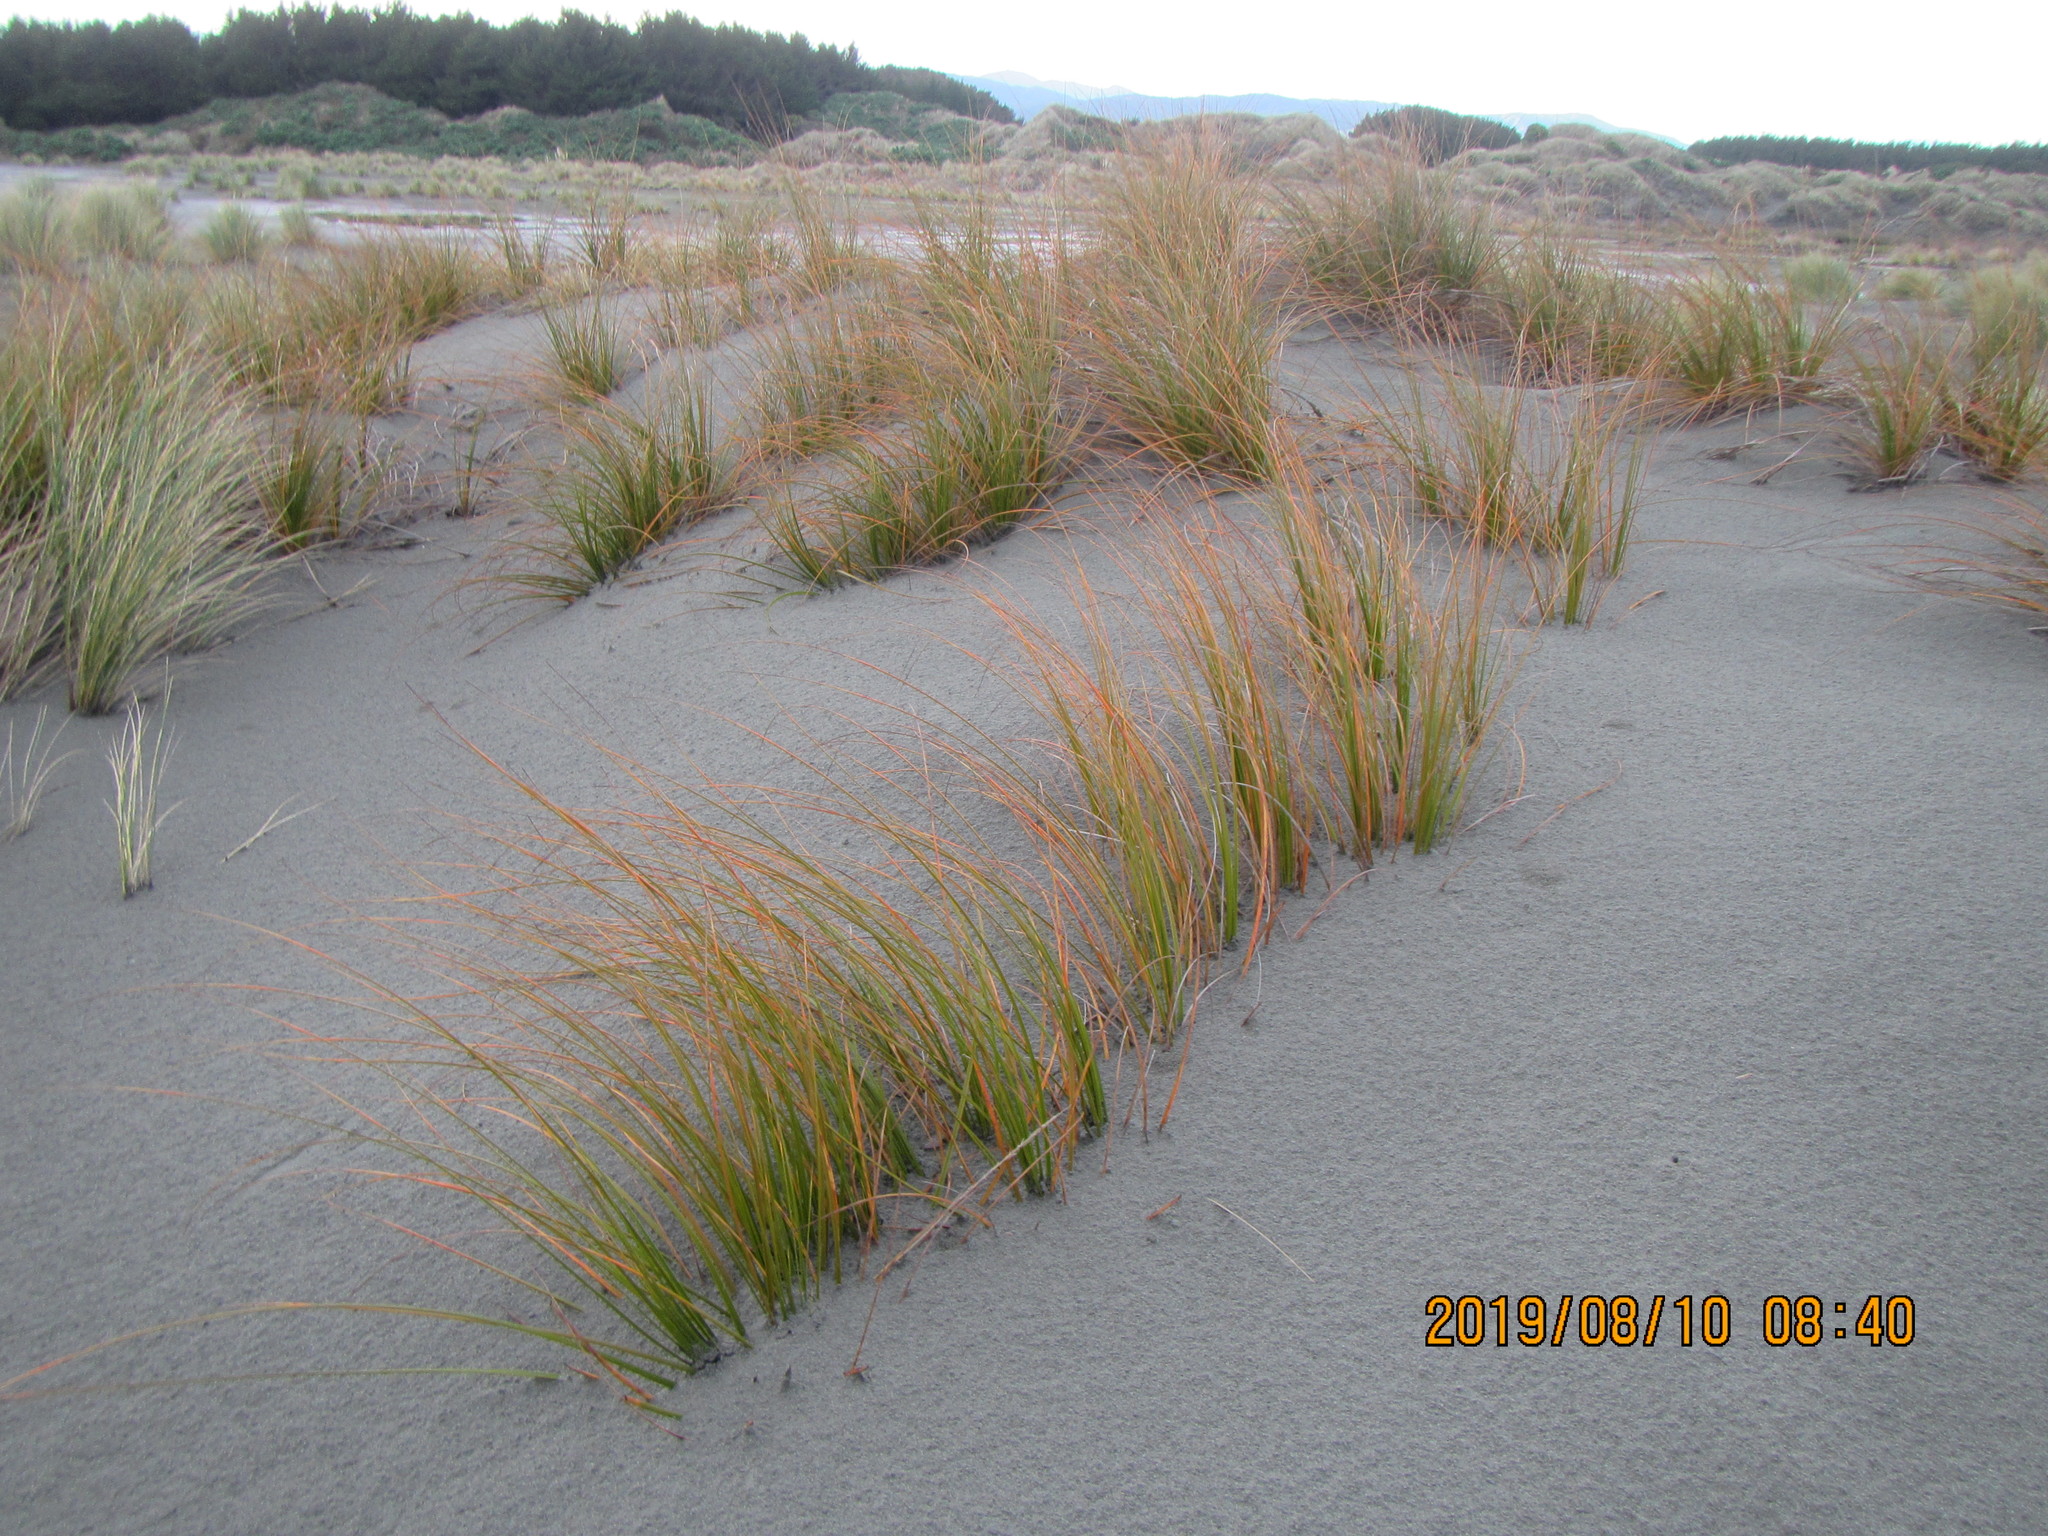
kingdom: Plantae
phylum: Tracheophyta
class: Liliopsida
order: Poales
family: Cyperaceae
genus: Ficinia
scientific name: Ficinia spiralis
